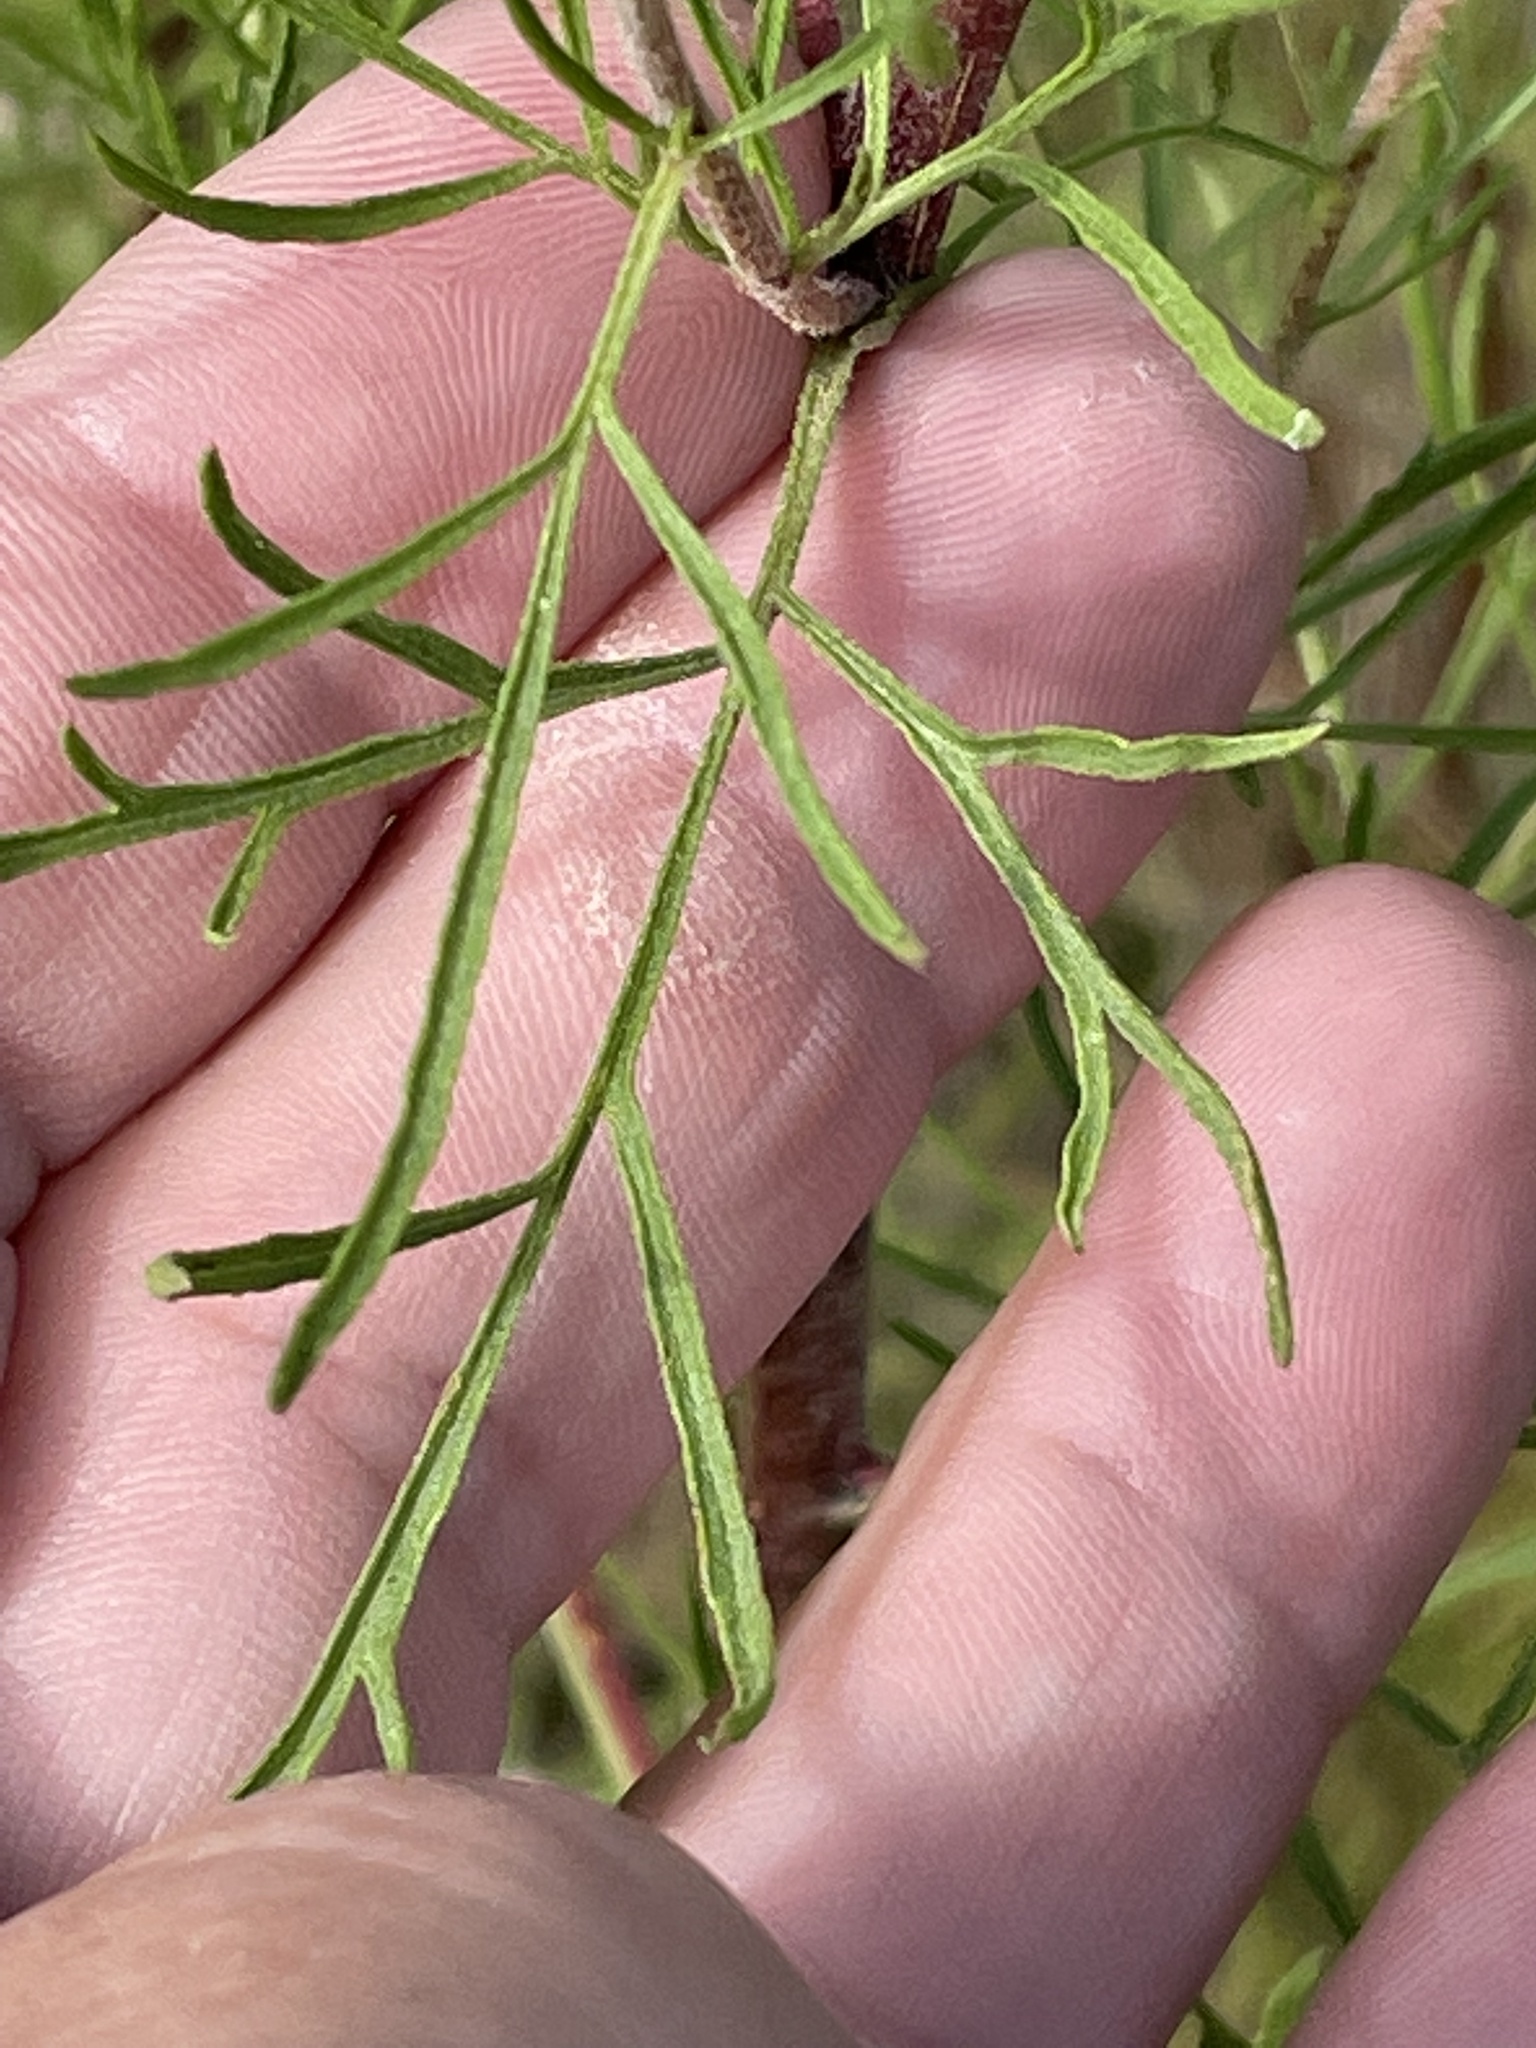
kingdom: Plantae
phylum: Tracheophyta
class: Magnoliopsida
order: Asterales
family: Asteraceae
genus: Eupatorium
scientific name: Eupatorium compositifolium
